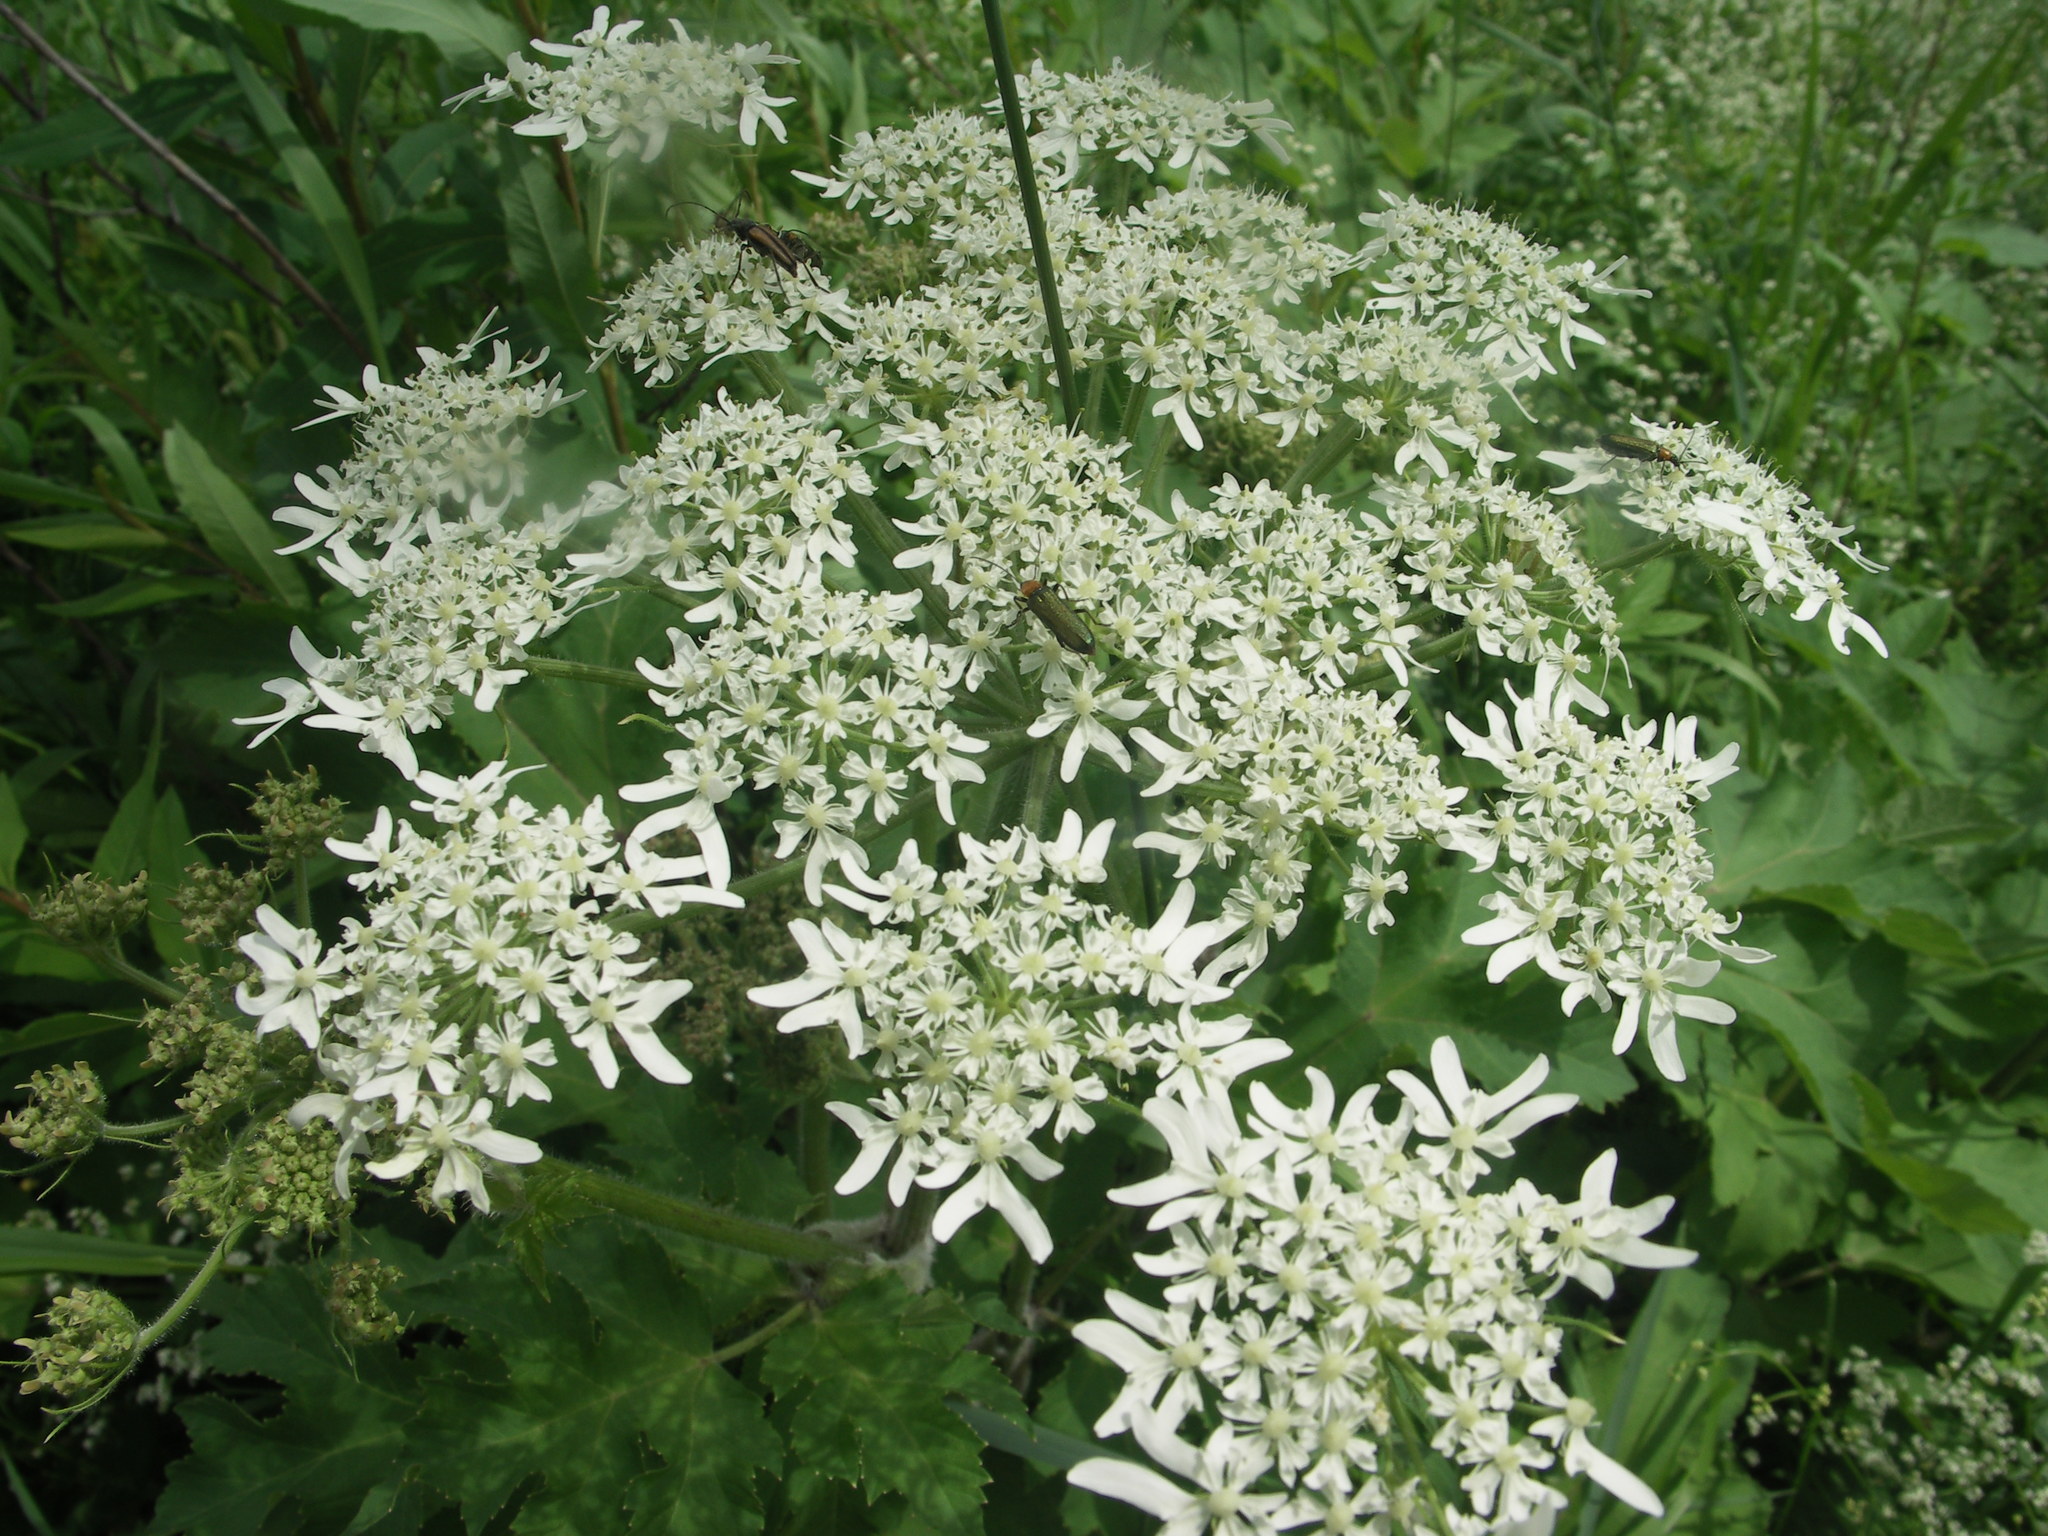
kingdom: Plantae
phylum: Tracheophyta
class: Magnoliopsida
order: Apiales
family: Apiaceae
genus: Heracleum
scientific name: Heracleum dissectum
